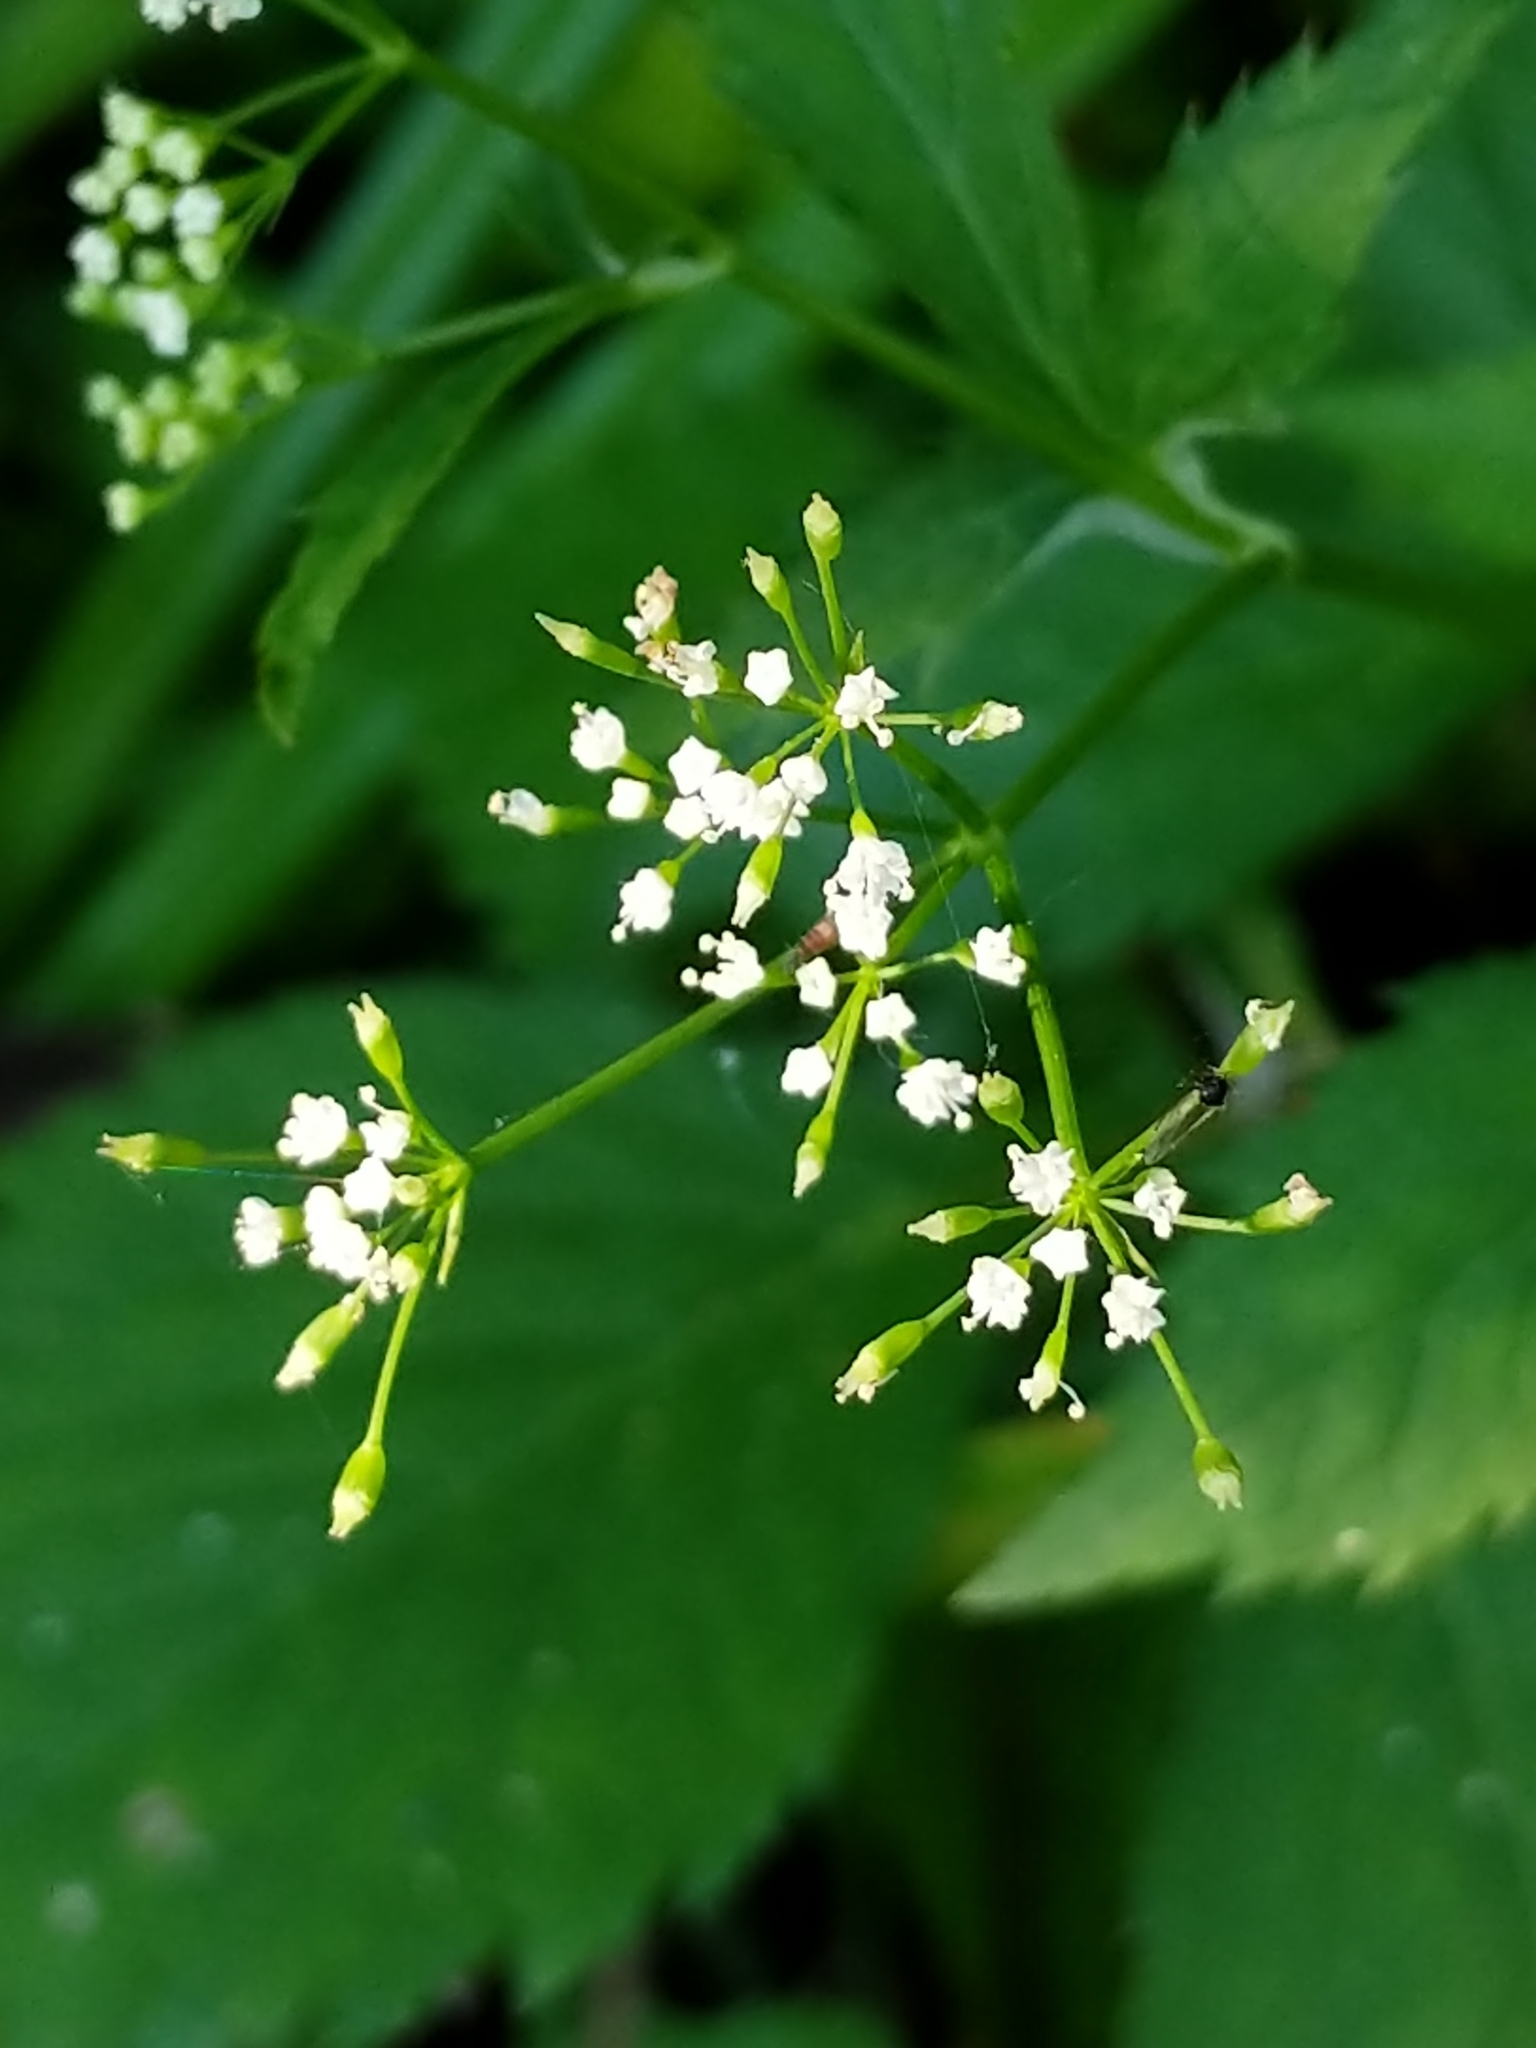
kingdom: Plantae
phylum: Tracheophyta
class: Magnoliopsida
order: Apiales
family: Apiaceae
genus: Cryptotaenia
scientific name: Cryptotaenia canadensis
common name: Honewort
